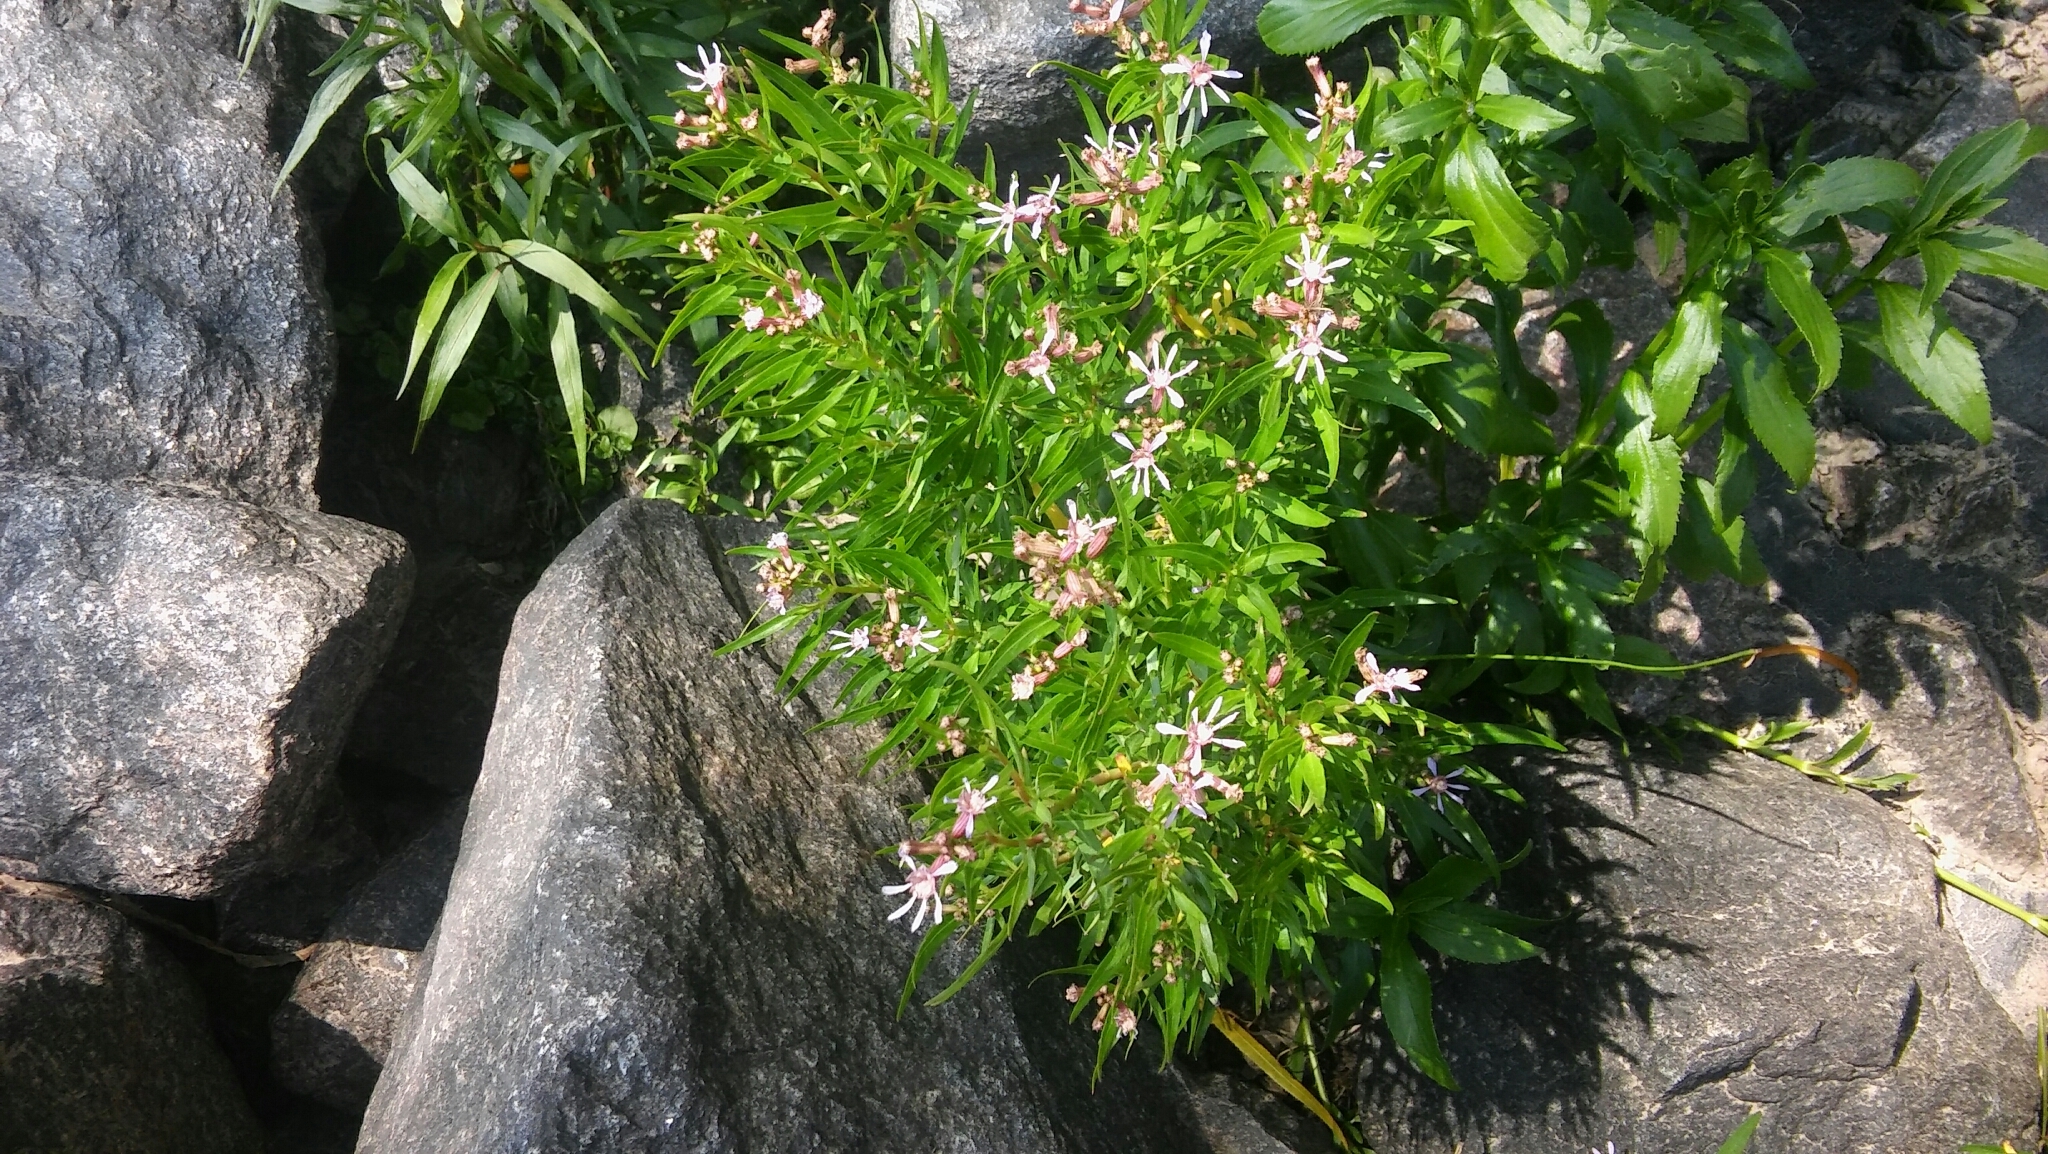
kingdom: Plantae
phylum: Tracheophyta
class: Magnoliopsida
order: Myrtales
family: Lythraceae
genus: Cuphea
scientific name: Cuphea fruticosa
